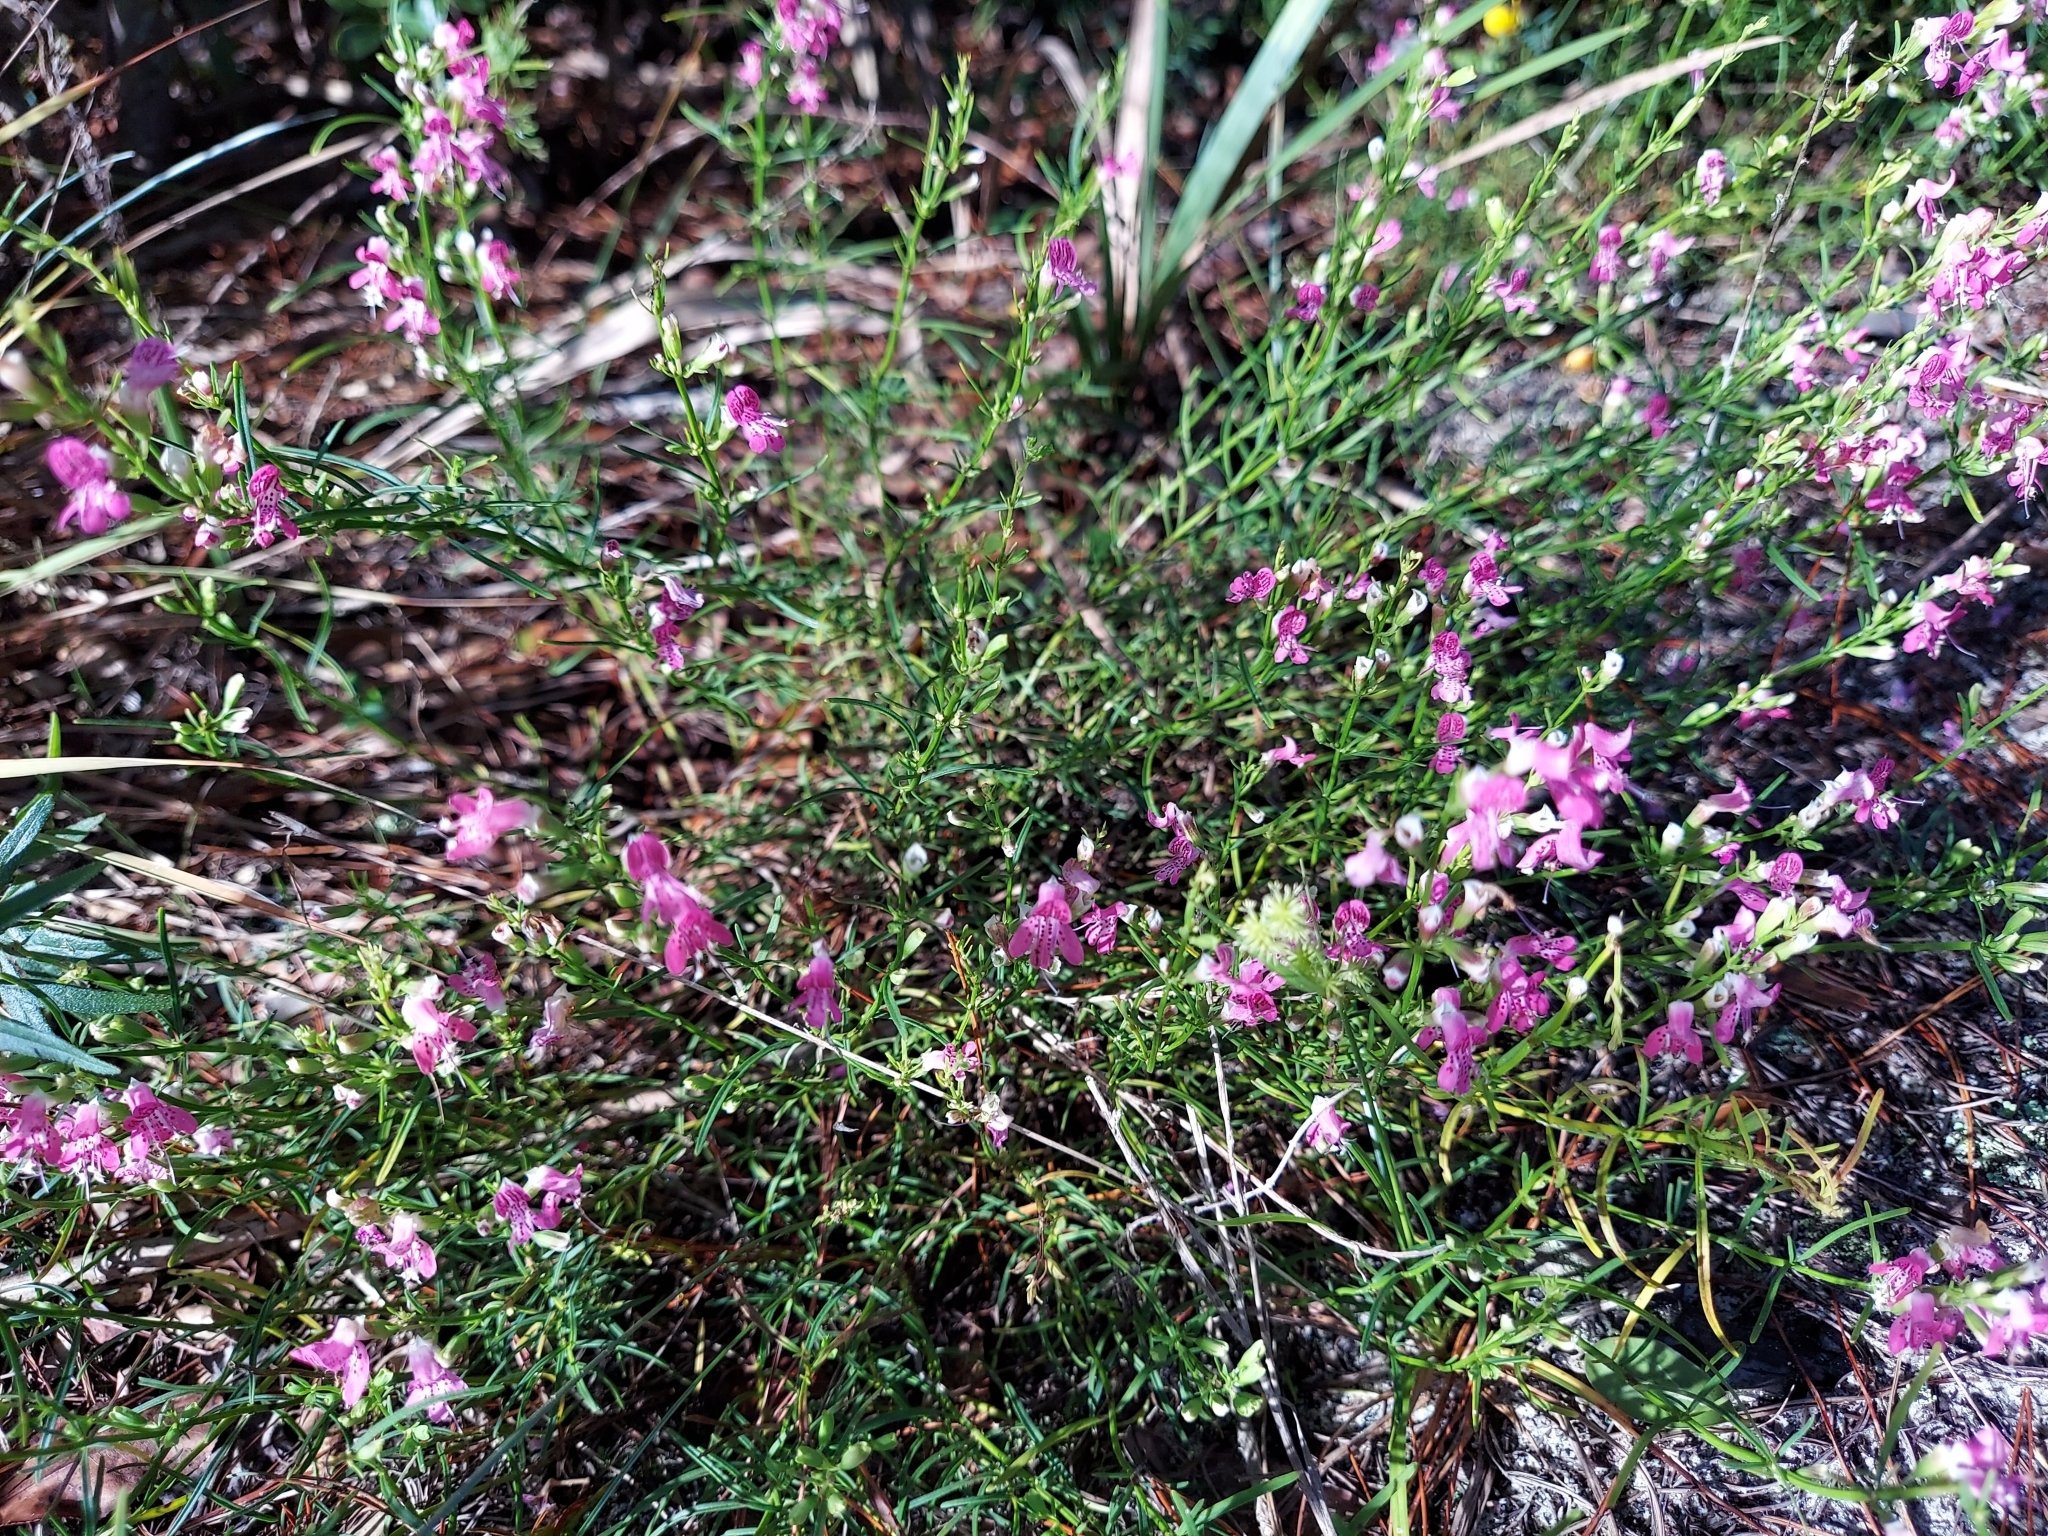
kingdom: Plantae
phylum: Tracheophyta
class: Magnoliopsida
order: Lamiales
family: Lamiaceae
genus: Dicerandra
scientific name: Dicerandra frutescens
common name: Scrub-mint
